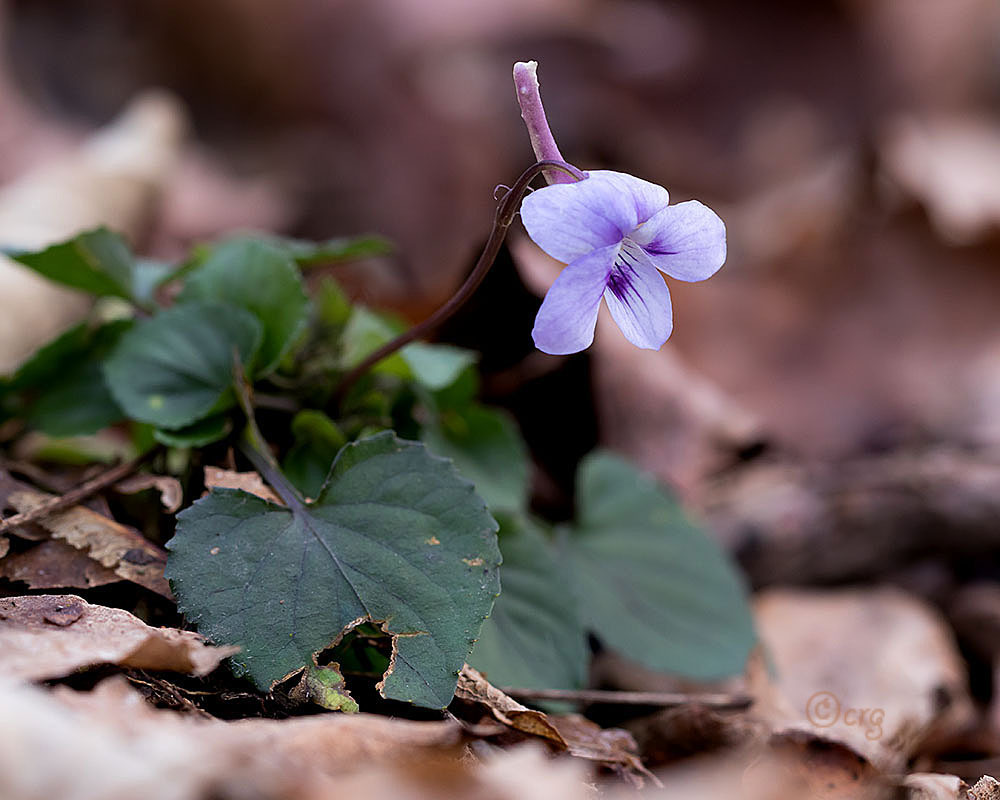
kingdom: Plantae
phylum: Tracheophyta
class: Magnoliopsida
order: Malpighiales
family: Violaceae
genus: Viola
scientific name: Viola rostrata
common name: Long-spur violet
